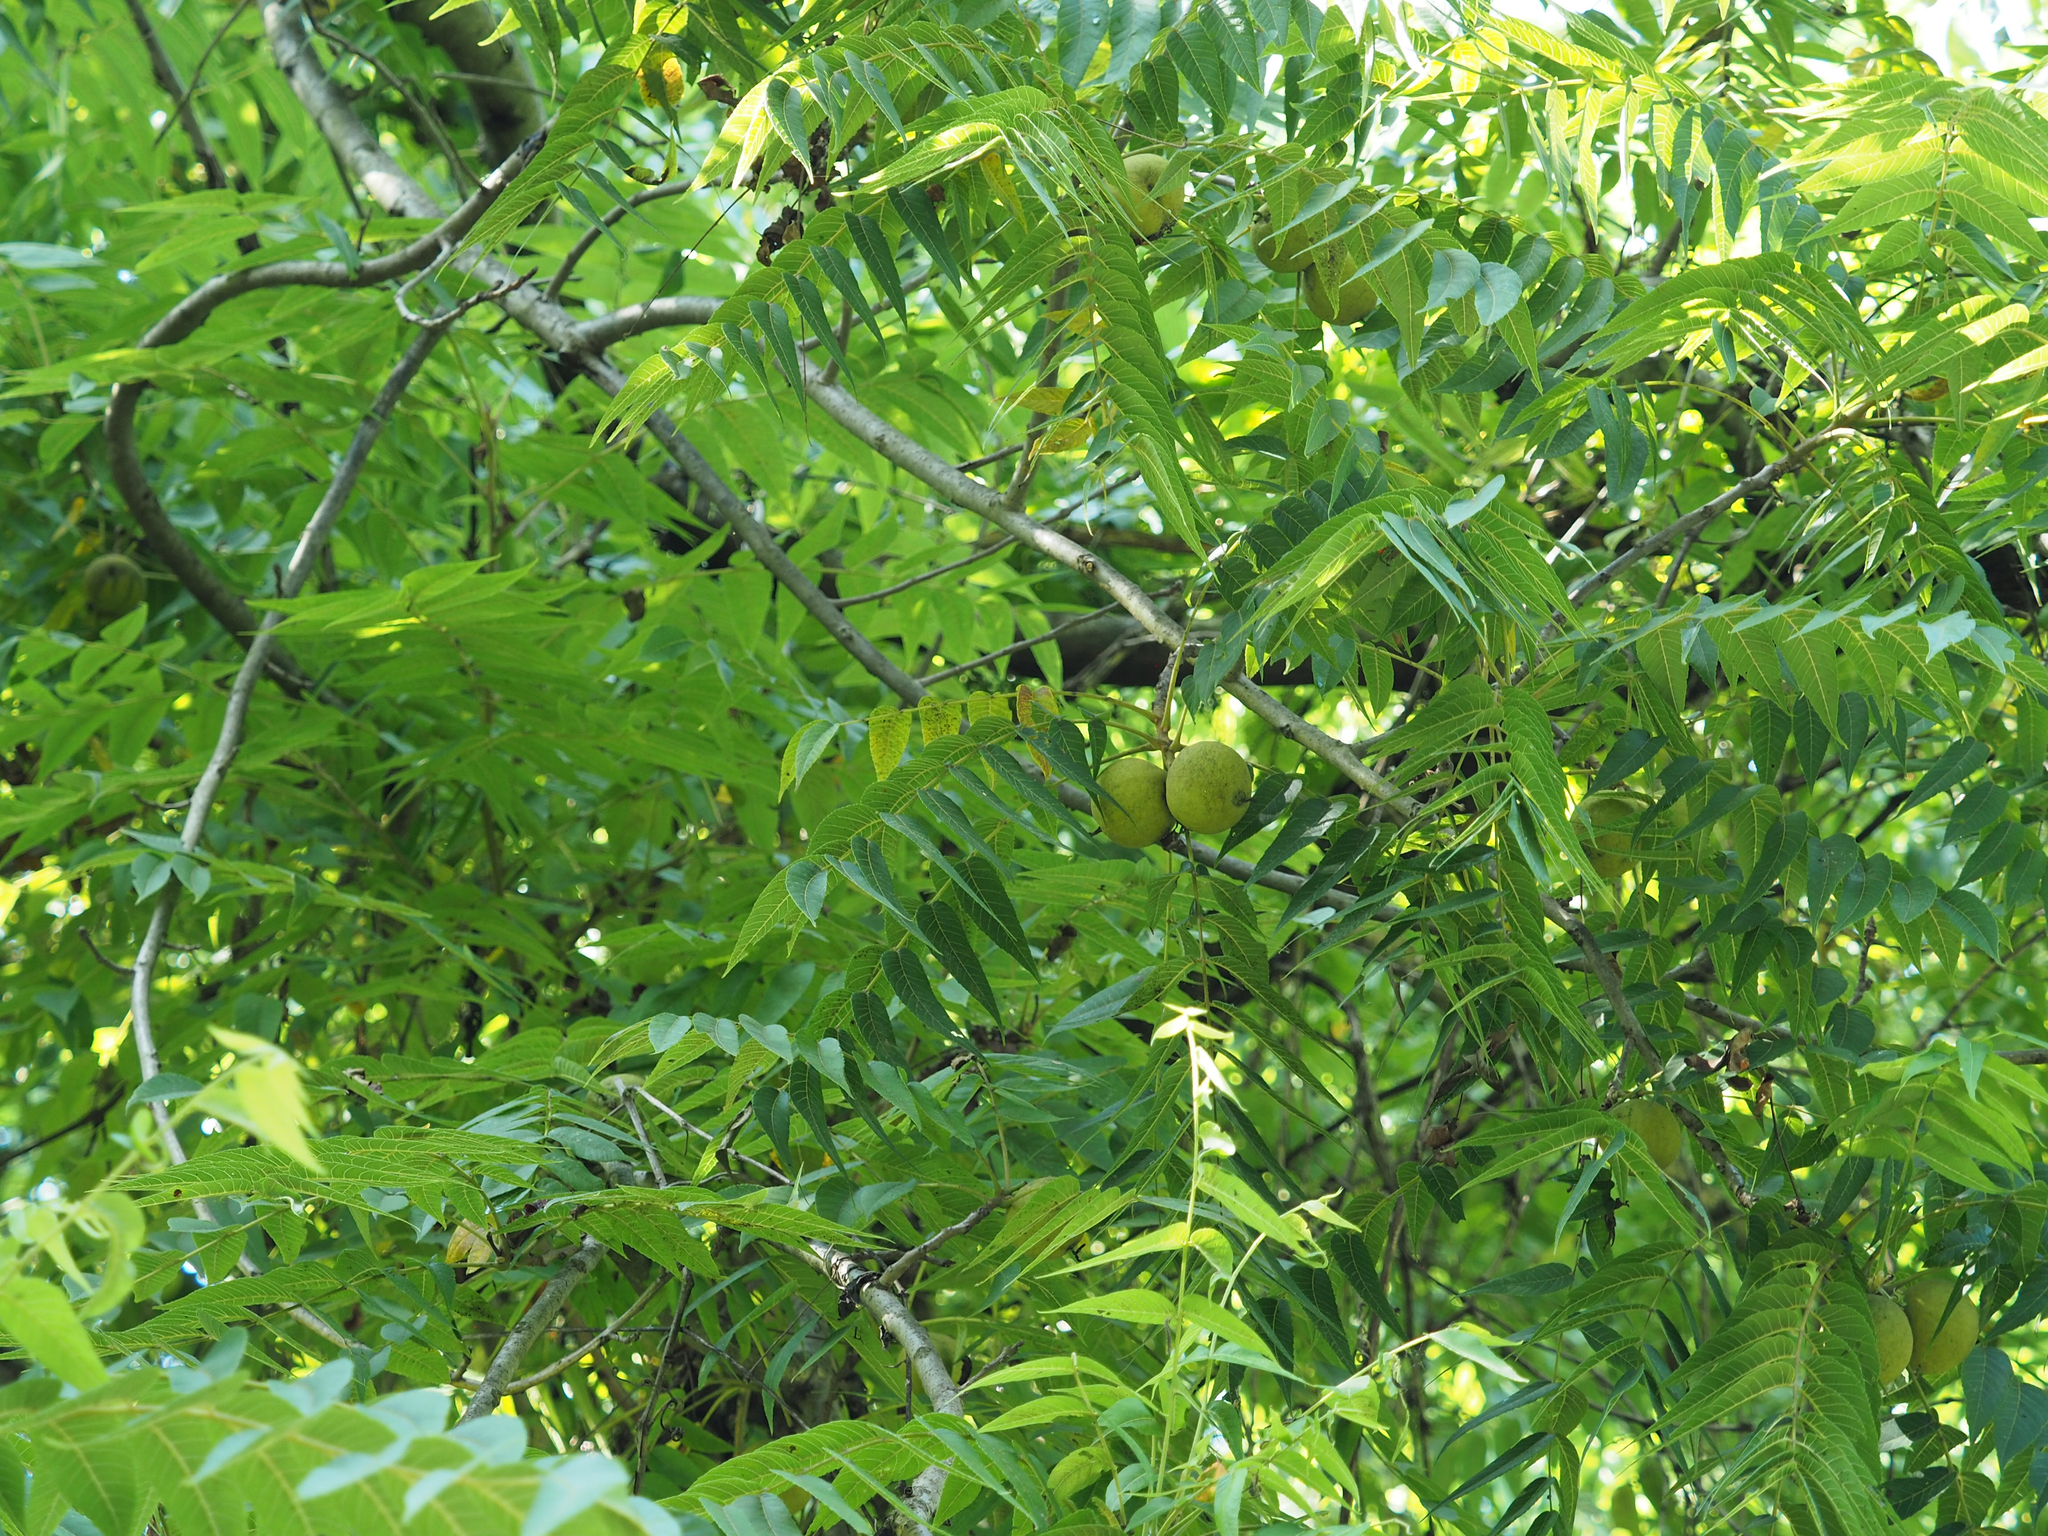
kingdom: Plantae
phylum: Tracheophyta
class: Magnoliopsida
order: Fagales
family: Juglandaceae
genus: Juglans
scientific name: Juglans nigra
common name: Black walnut
